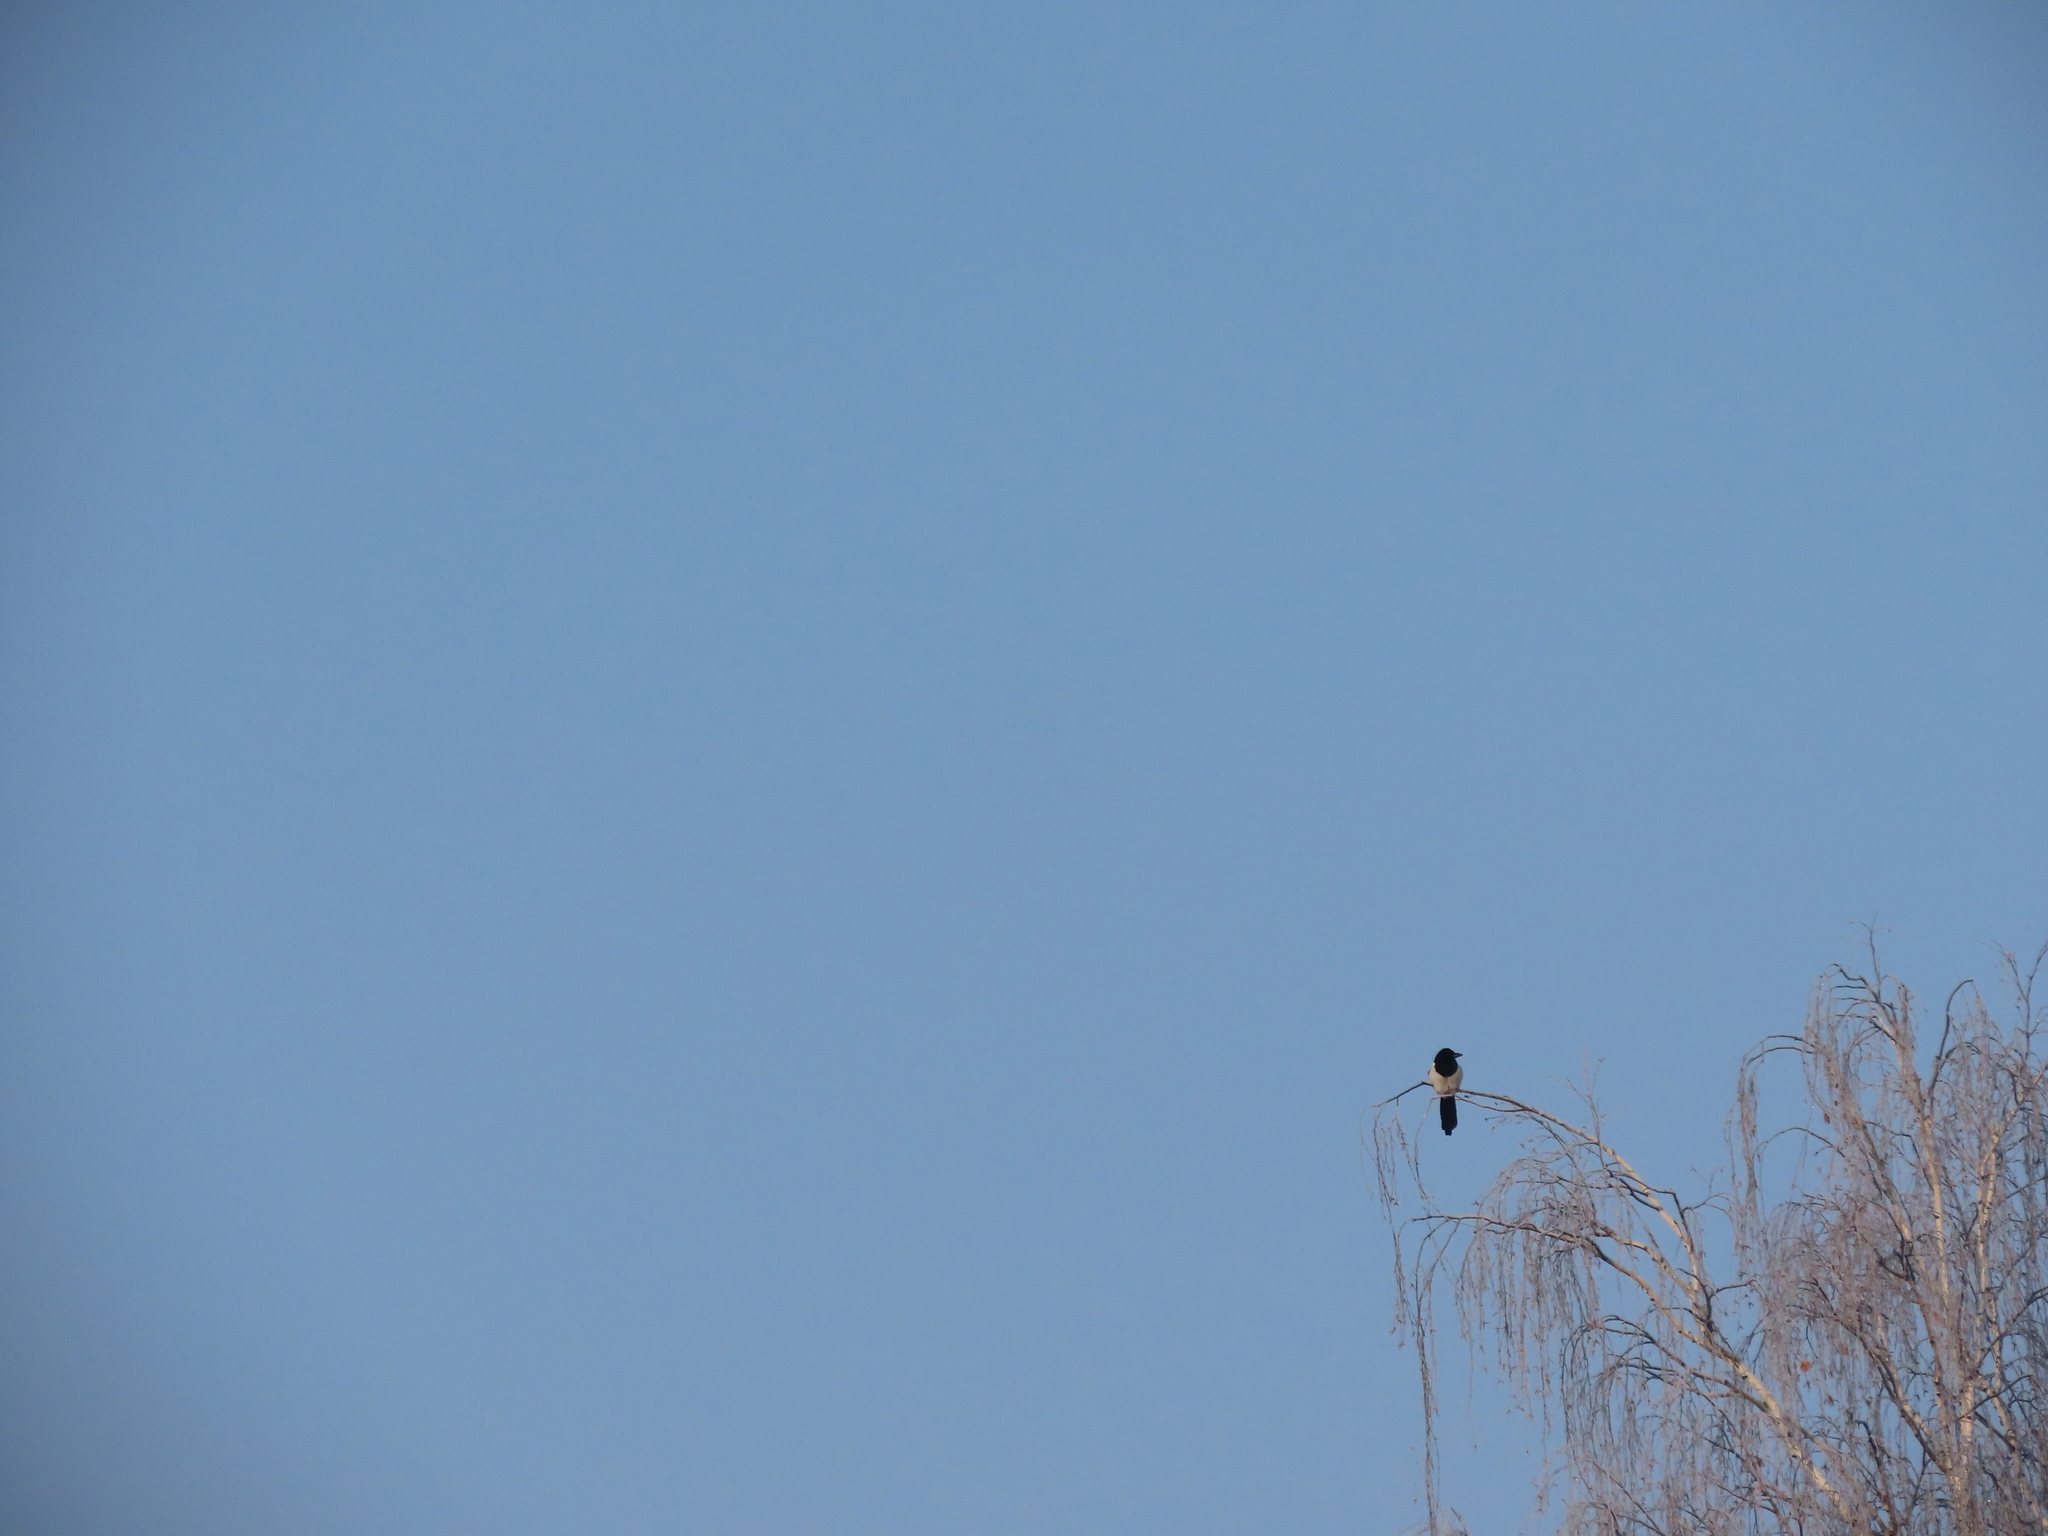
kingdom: Animalia
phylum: Chordata
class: Aves
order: Passeriformes
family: Corvidae
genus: Pica
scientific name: Pica pica
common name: Eurasian magpie
